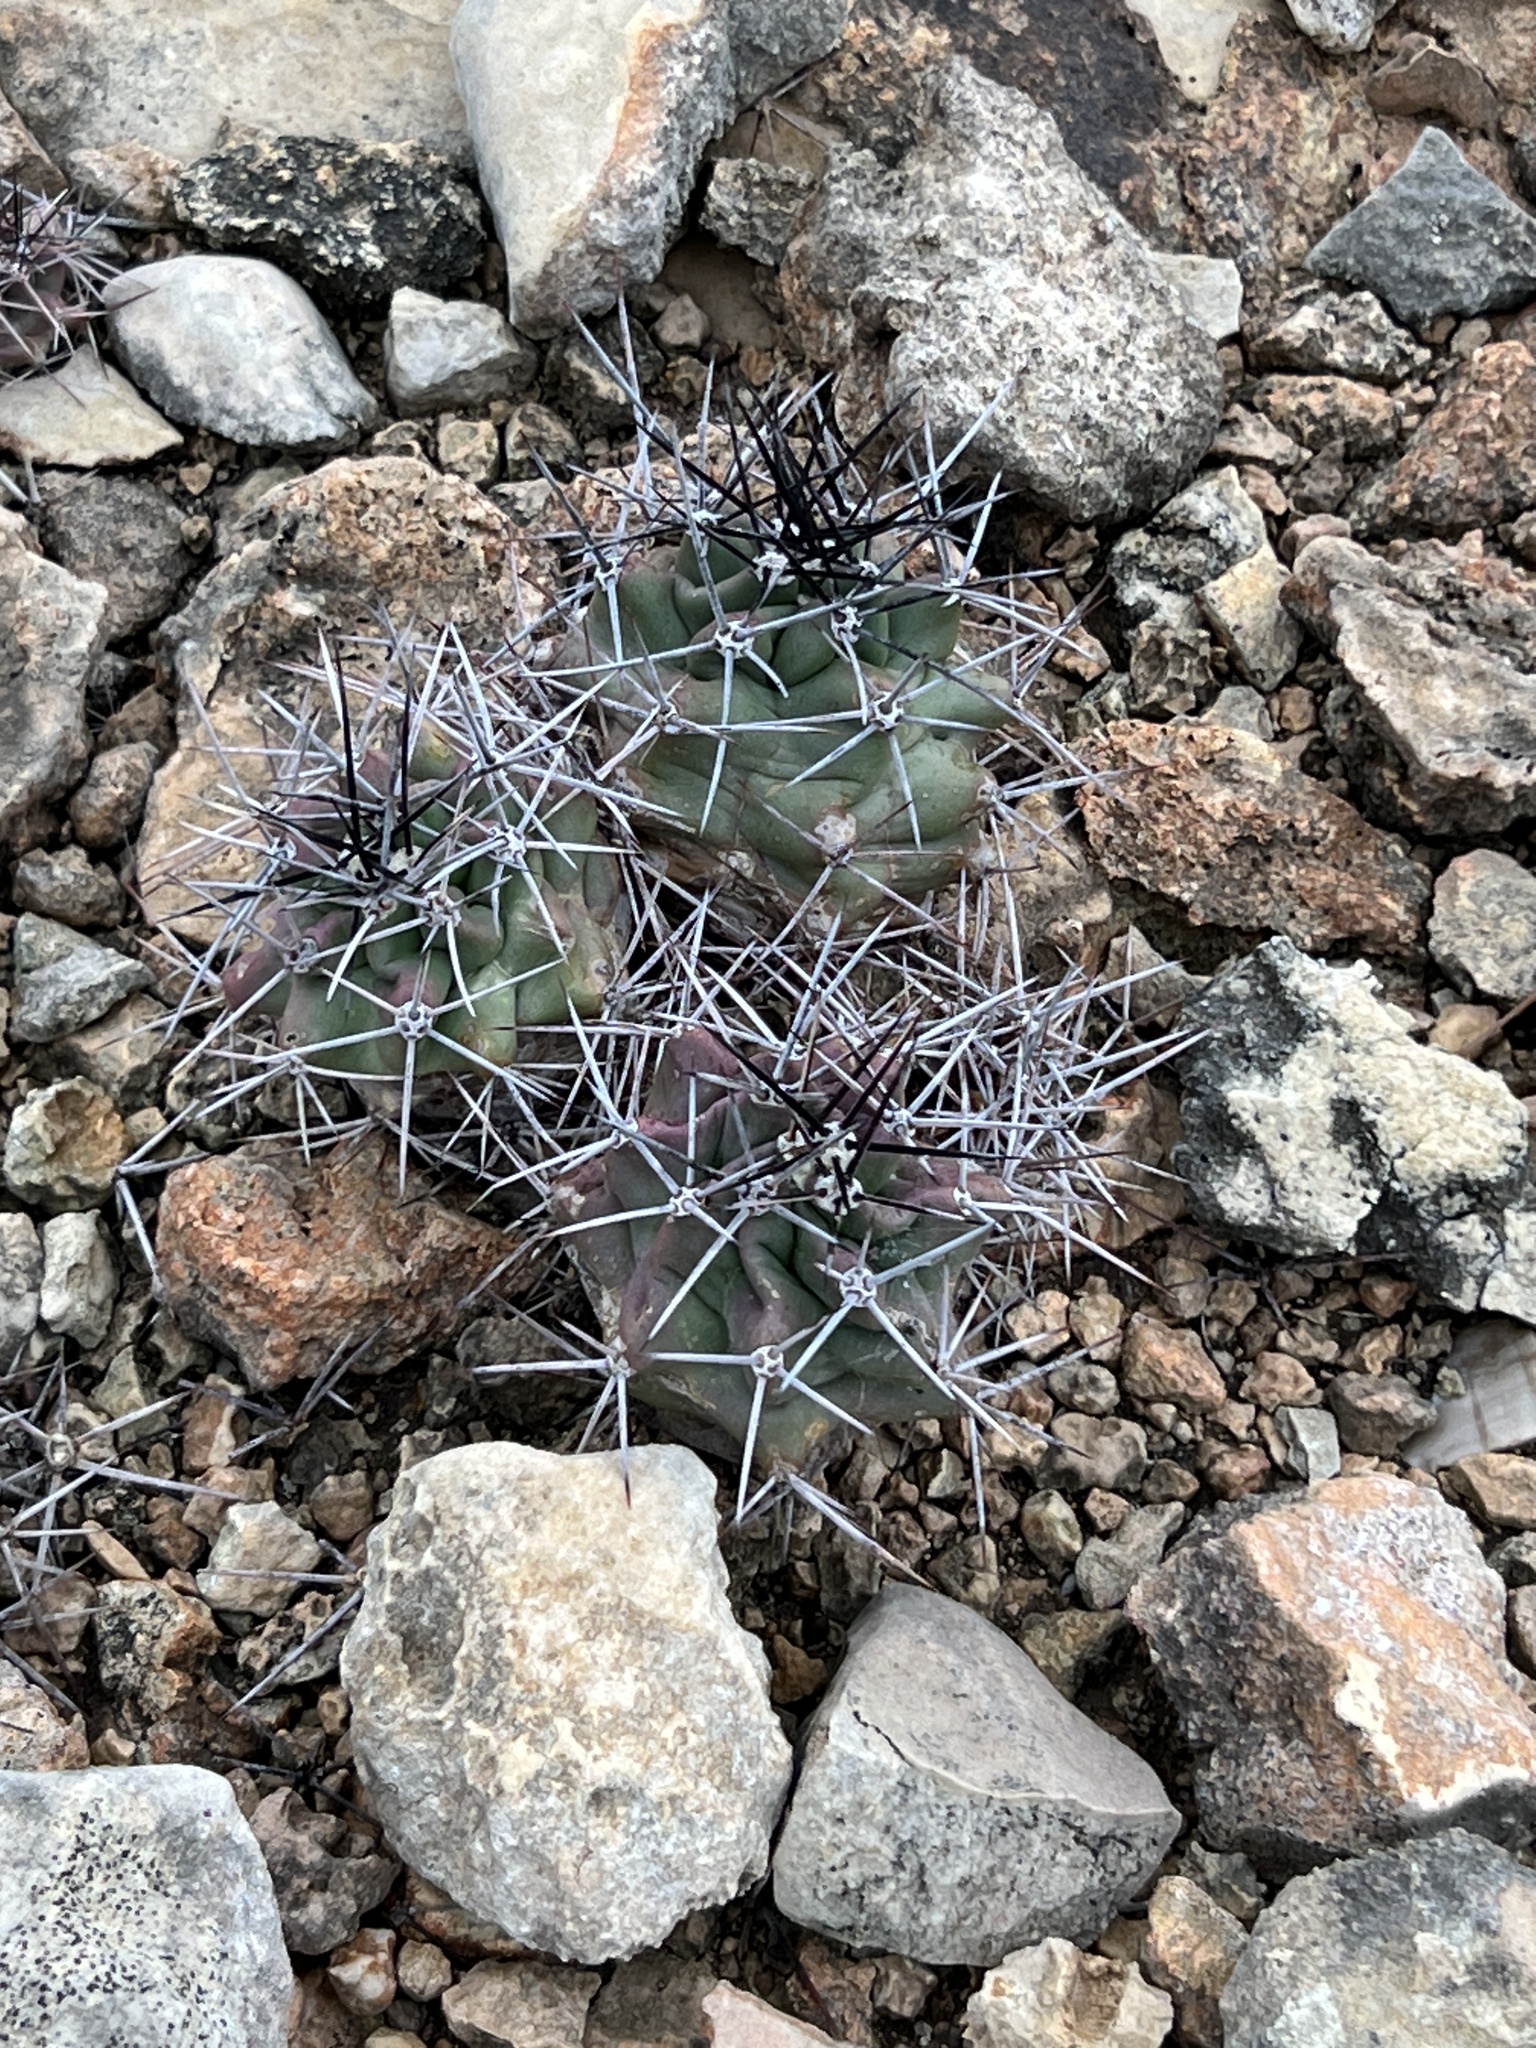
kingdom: Plantae
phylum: Tracheophyta
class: Magnoliopsida
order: Caryophyllales
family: Cactaceae
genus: Echinocereus
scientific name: Echinocereus coccineus
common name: Scarlet hedgehog cactus
